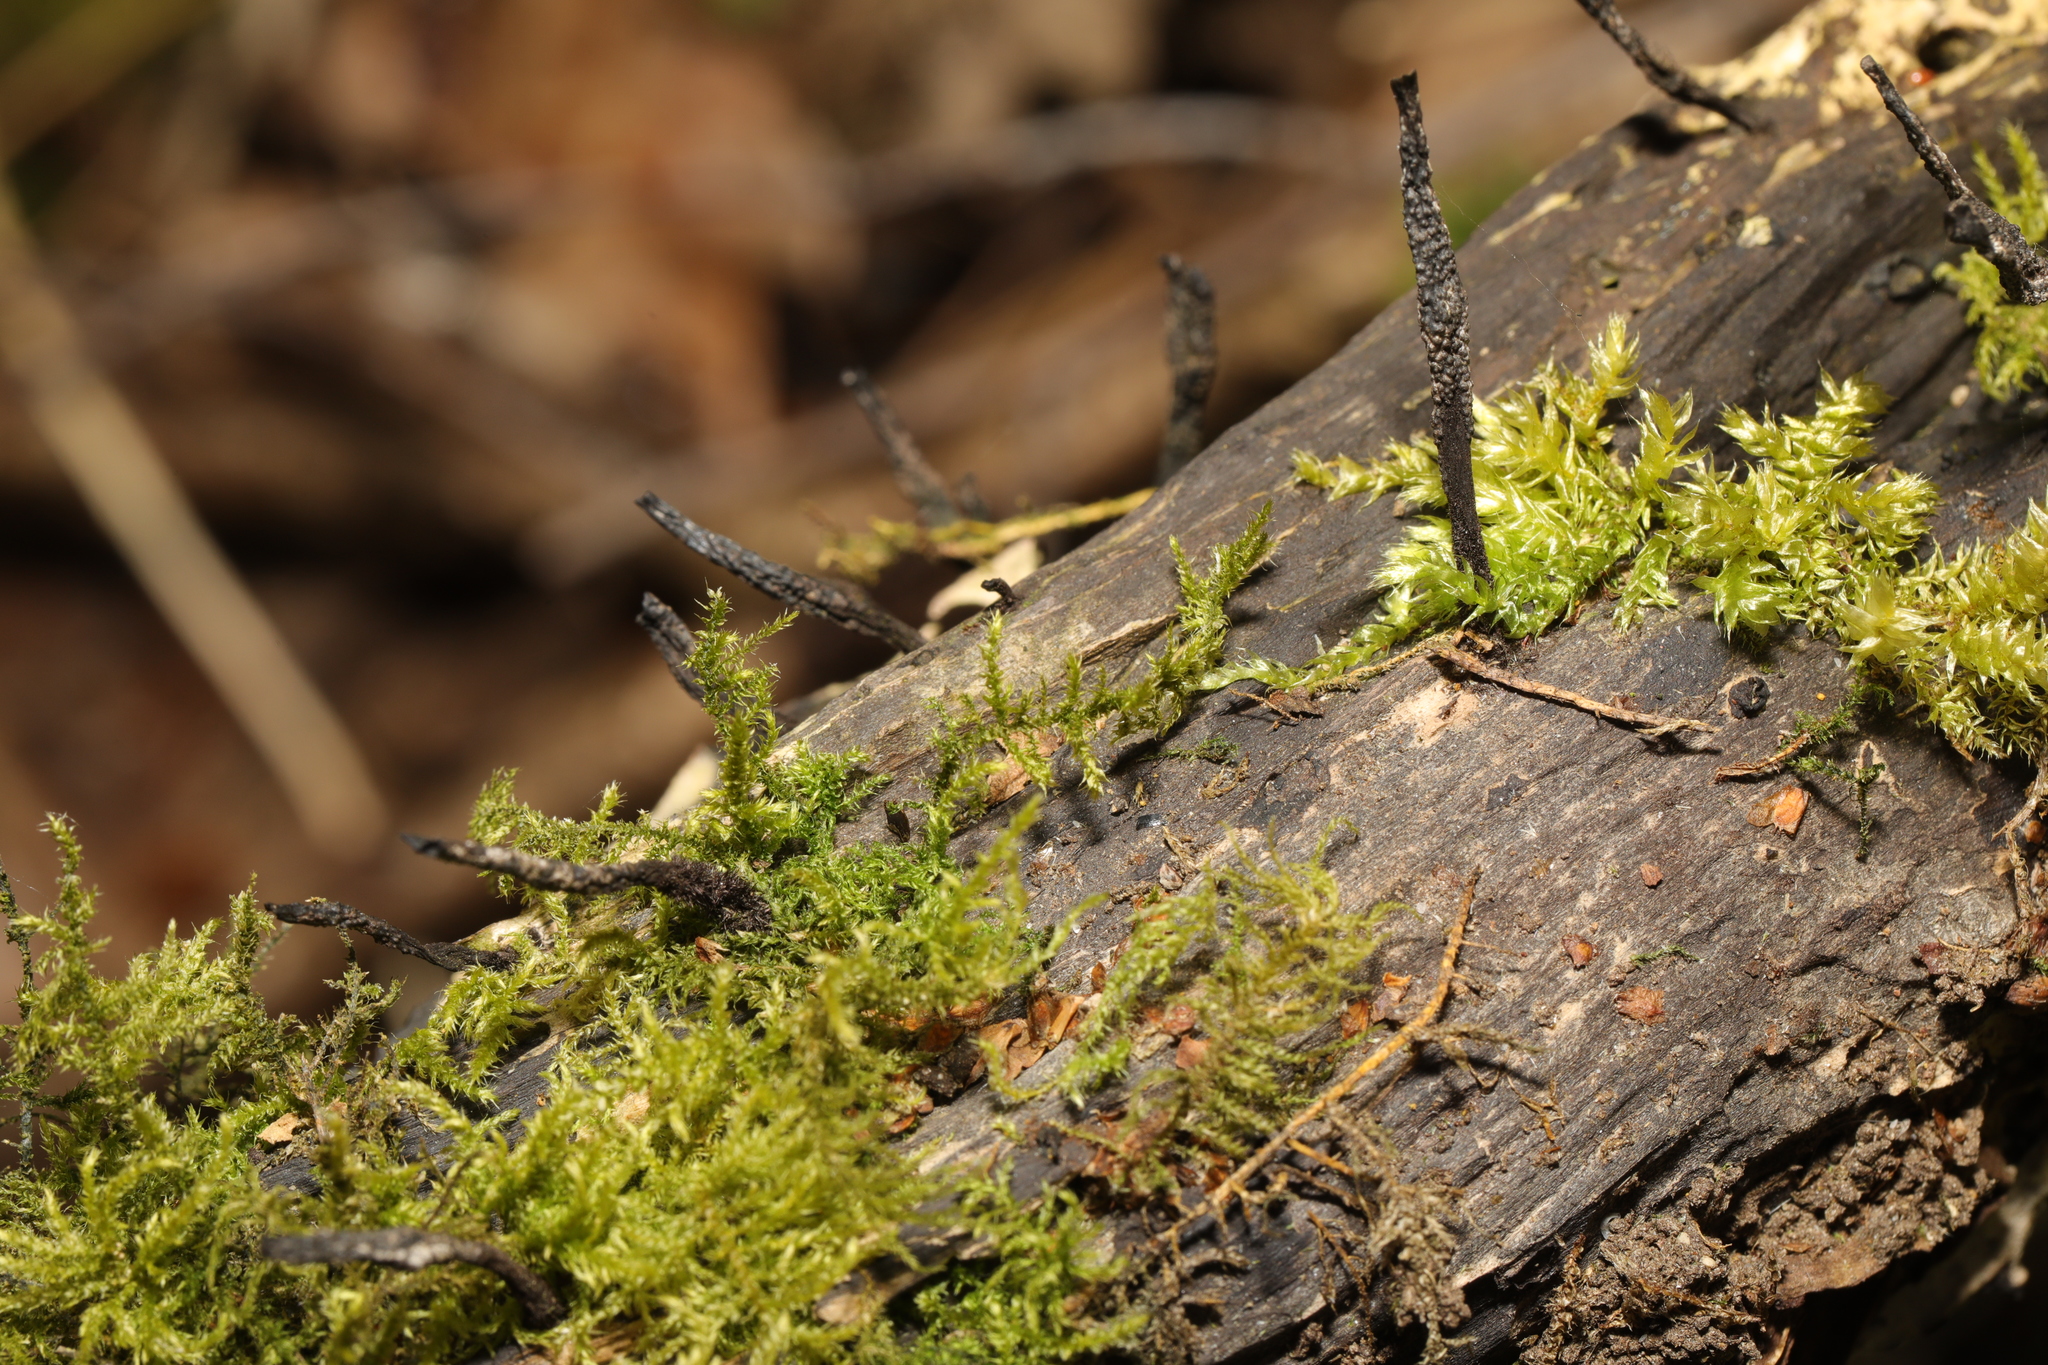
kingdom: Fungi
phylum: Ascomycota
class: Sordariomycetes
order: Xylariales
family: Xylariaceae
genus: Xylaria
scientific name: Xylaria hypoxylon
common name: Candle-snuff fungus
